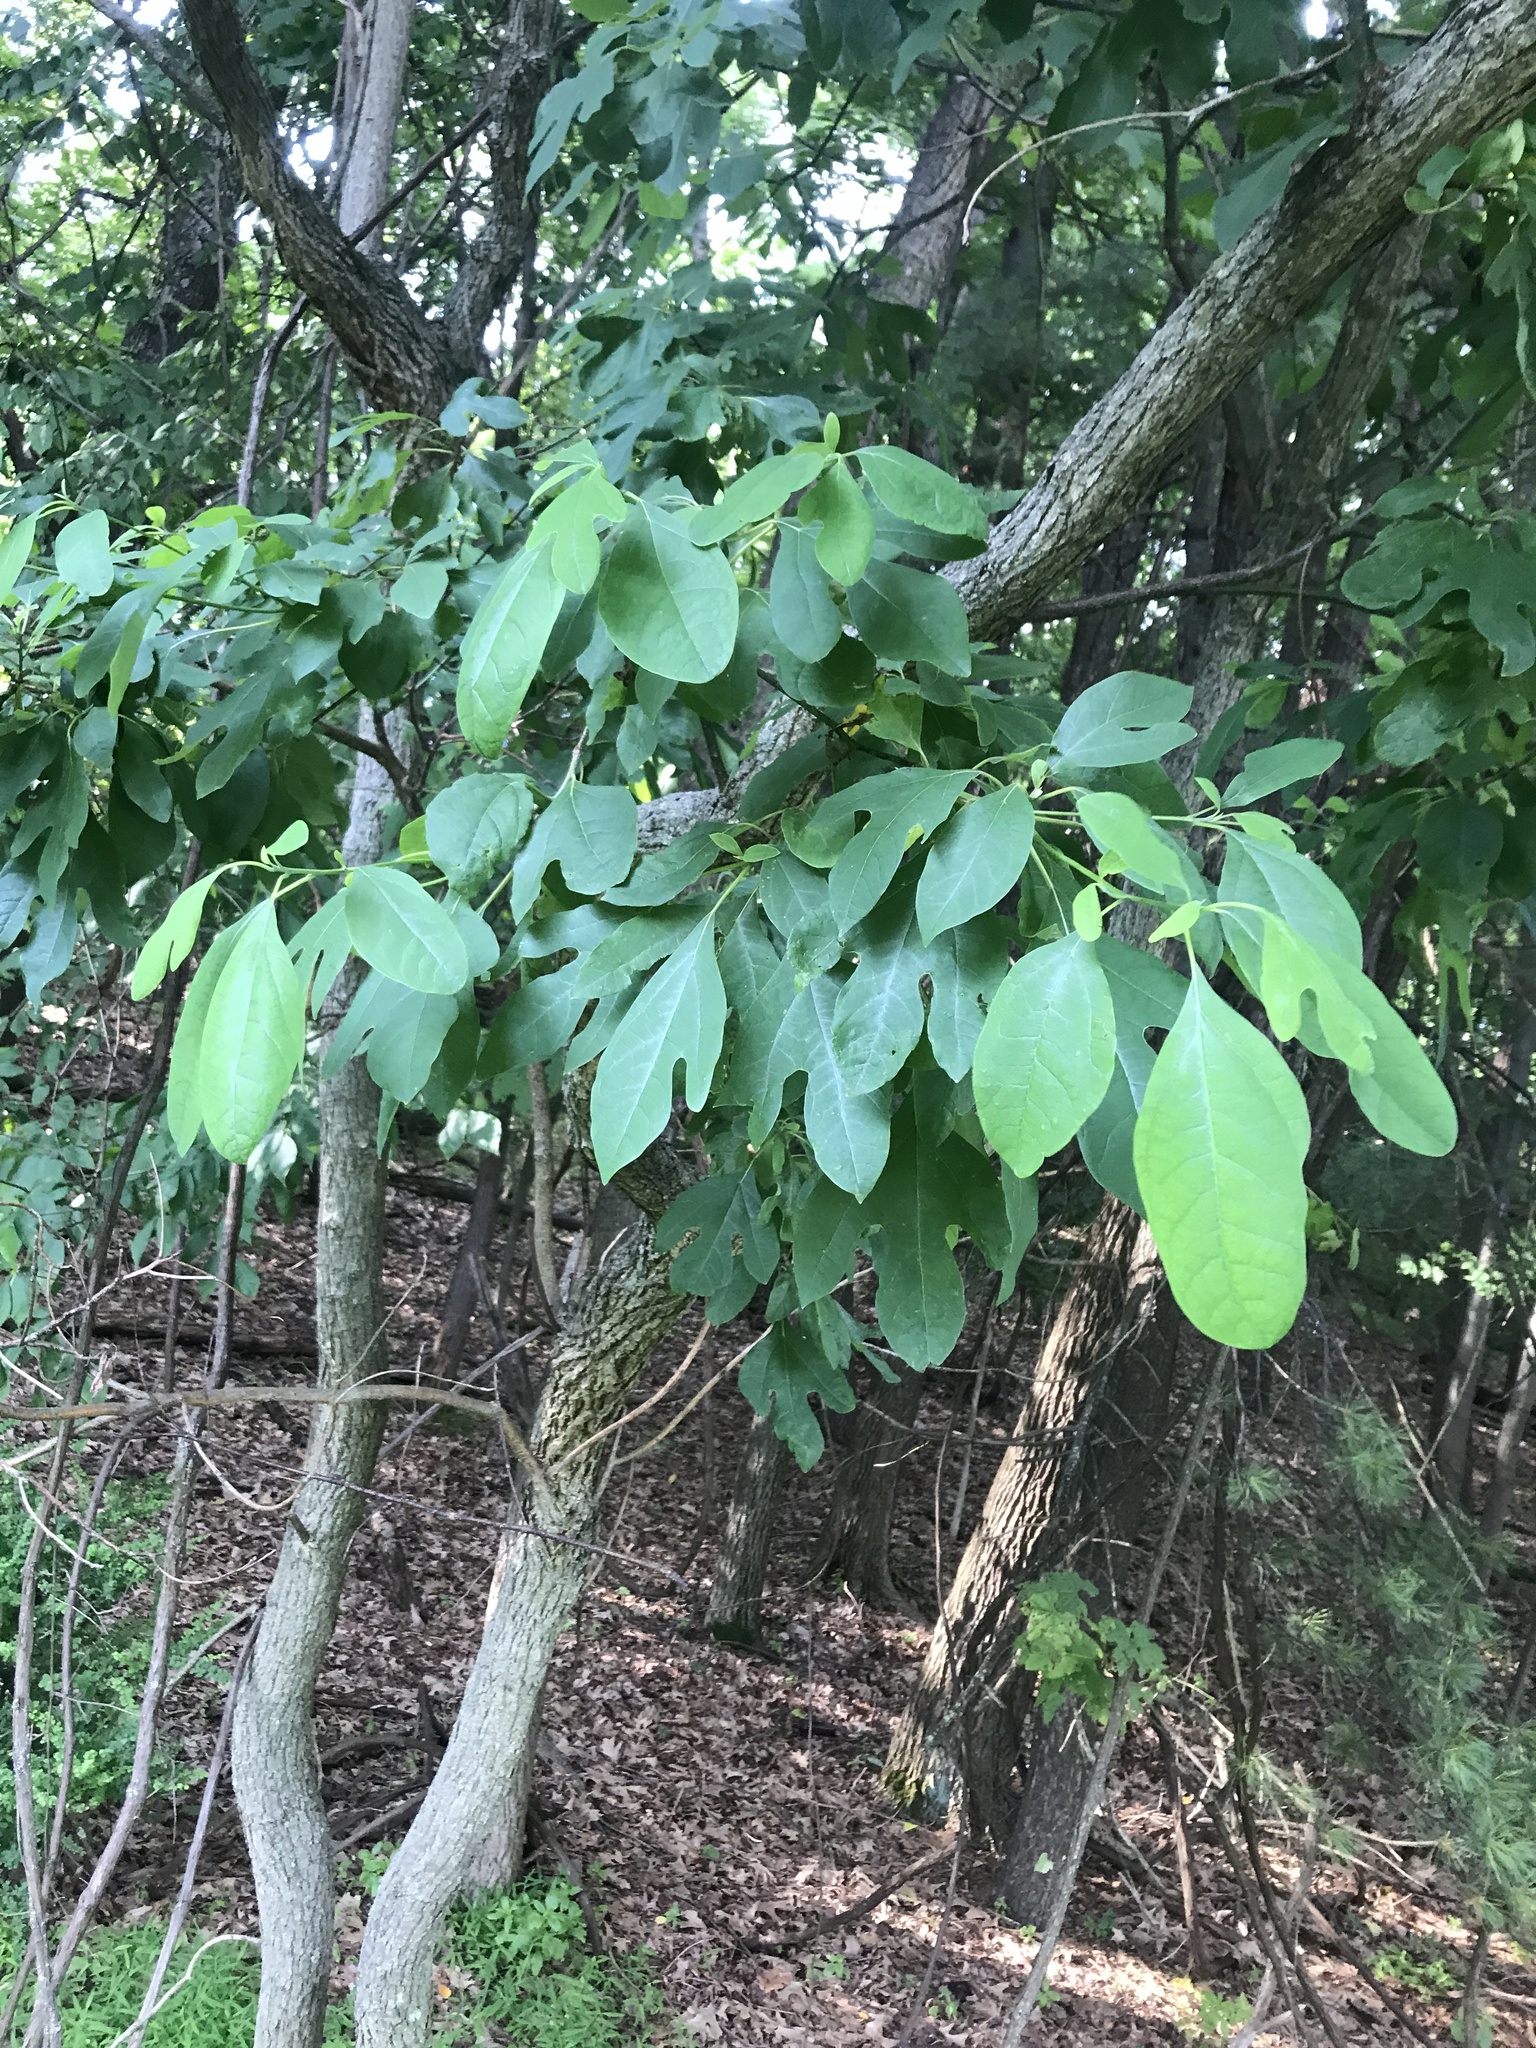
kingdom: Plantae
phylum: Tracheophyta
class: Magnoliopsida
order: Laurales
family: Lauraceae
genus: Sassafras
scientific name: Sassafras albidum
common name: Sassafras
